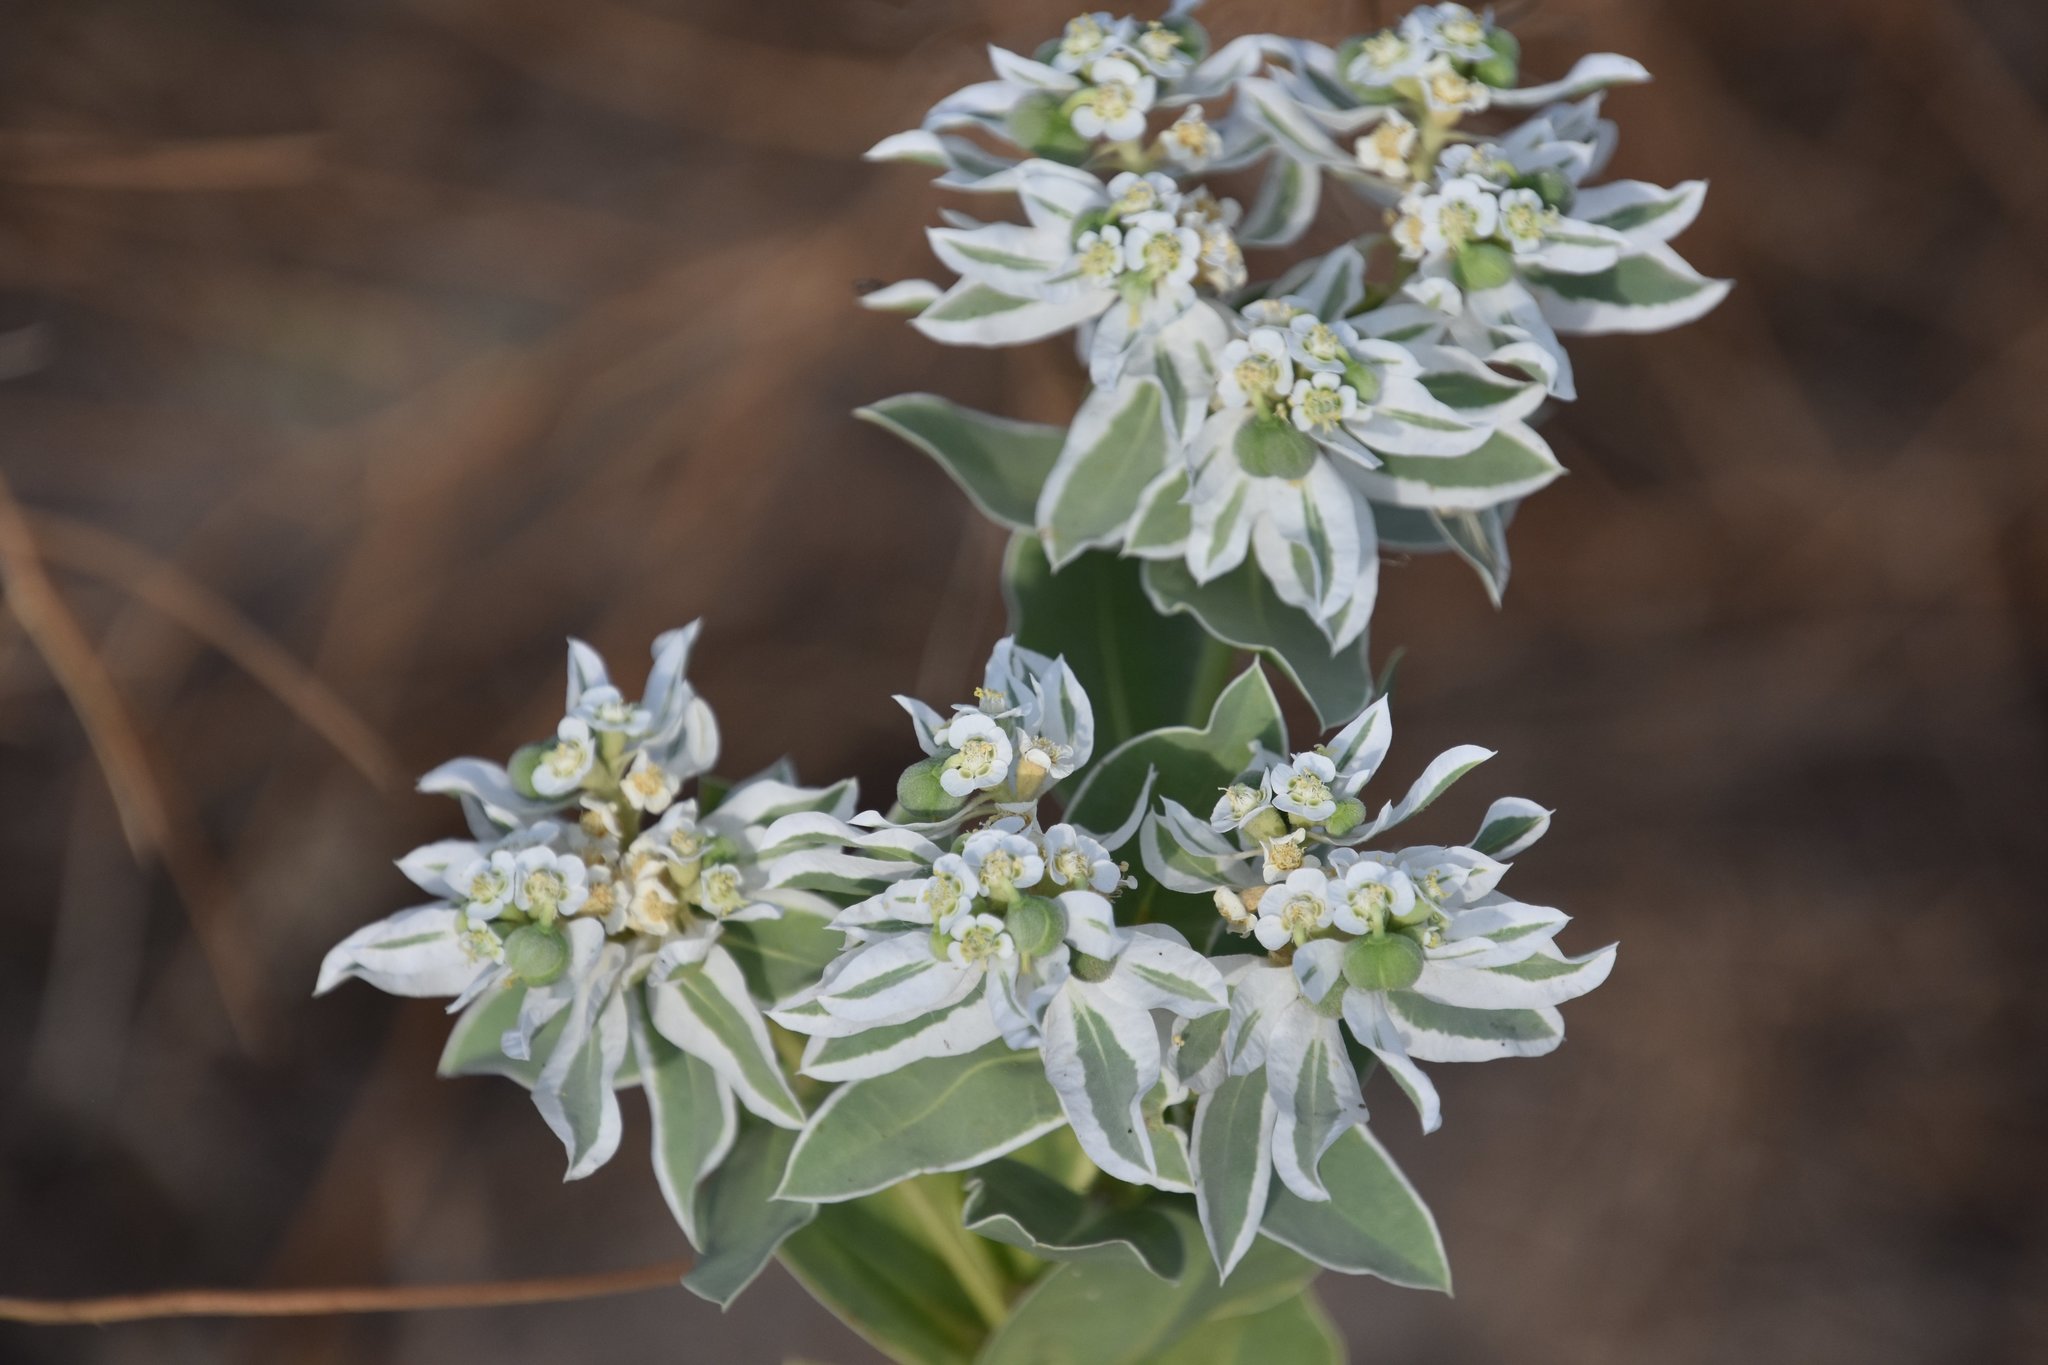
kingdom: Plantae
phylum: Tracheophyta
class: Magnoliopsida
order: Malpighiales
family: Euphorbiaceae
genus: Euphorbia
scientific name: Euphorbia marginata
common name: Ghostweed
